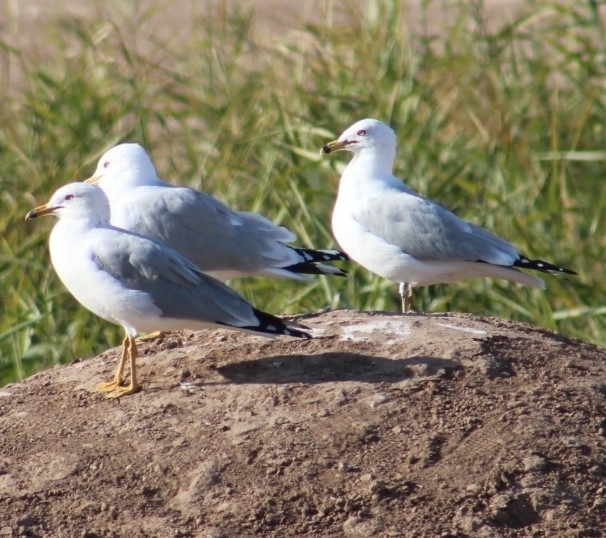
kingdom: Animalia
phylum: Chordata
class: Aves
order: Charadriiformes
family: Laridae
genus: Larus
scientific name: Larus delawarensis
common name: Ring-billed gull
